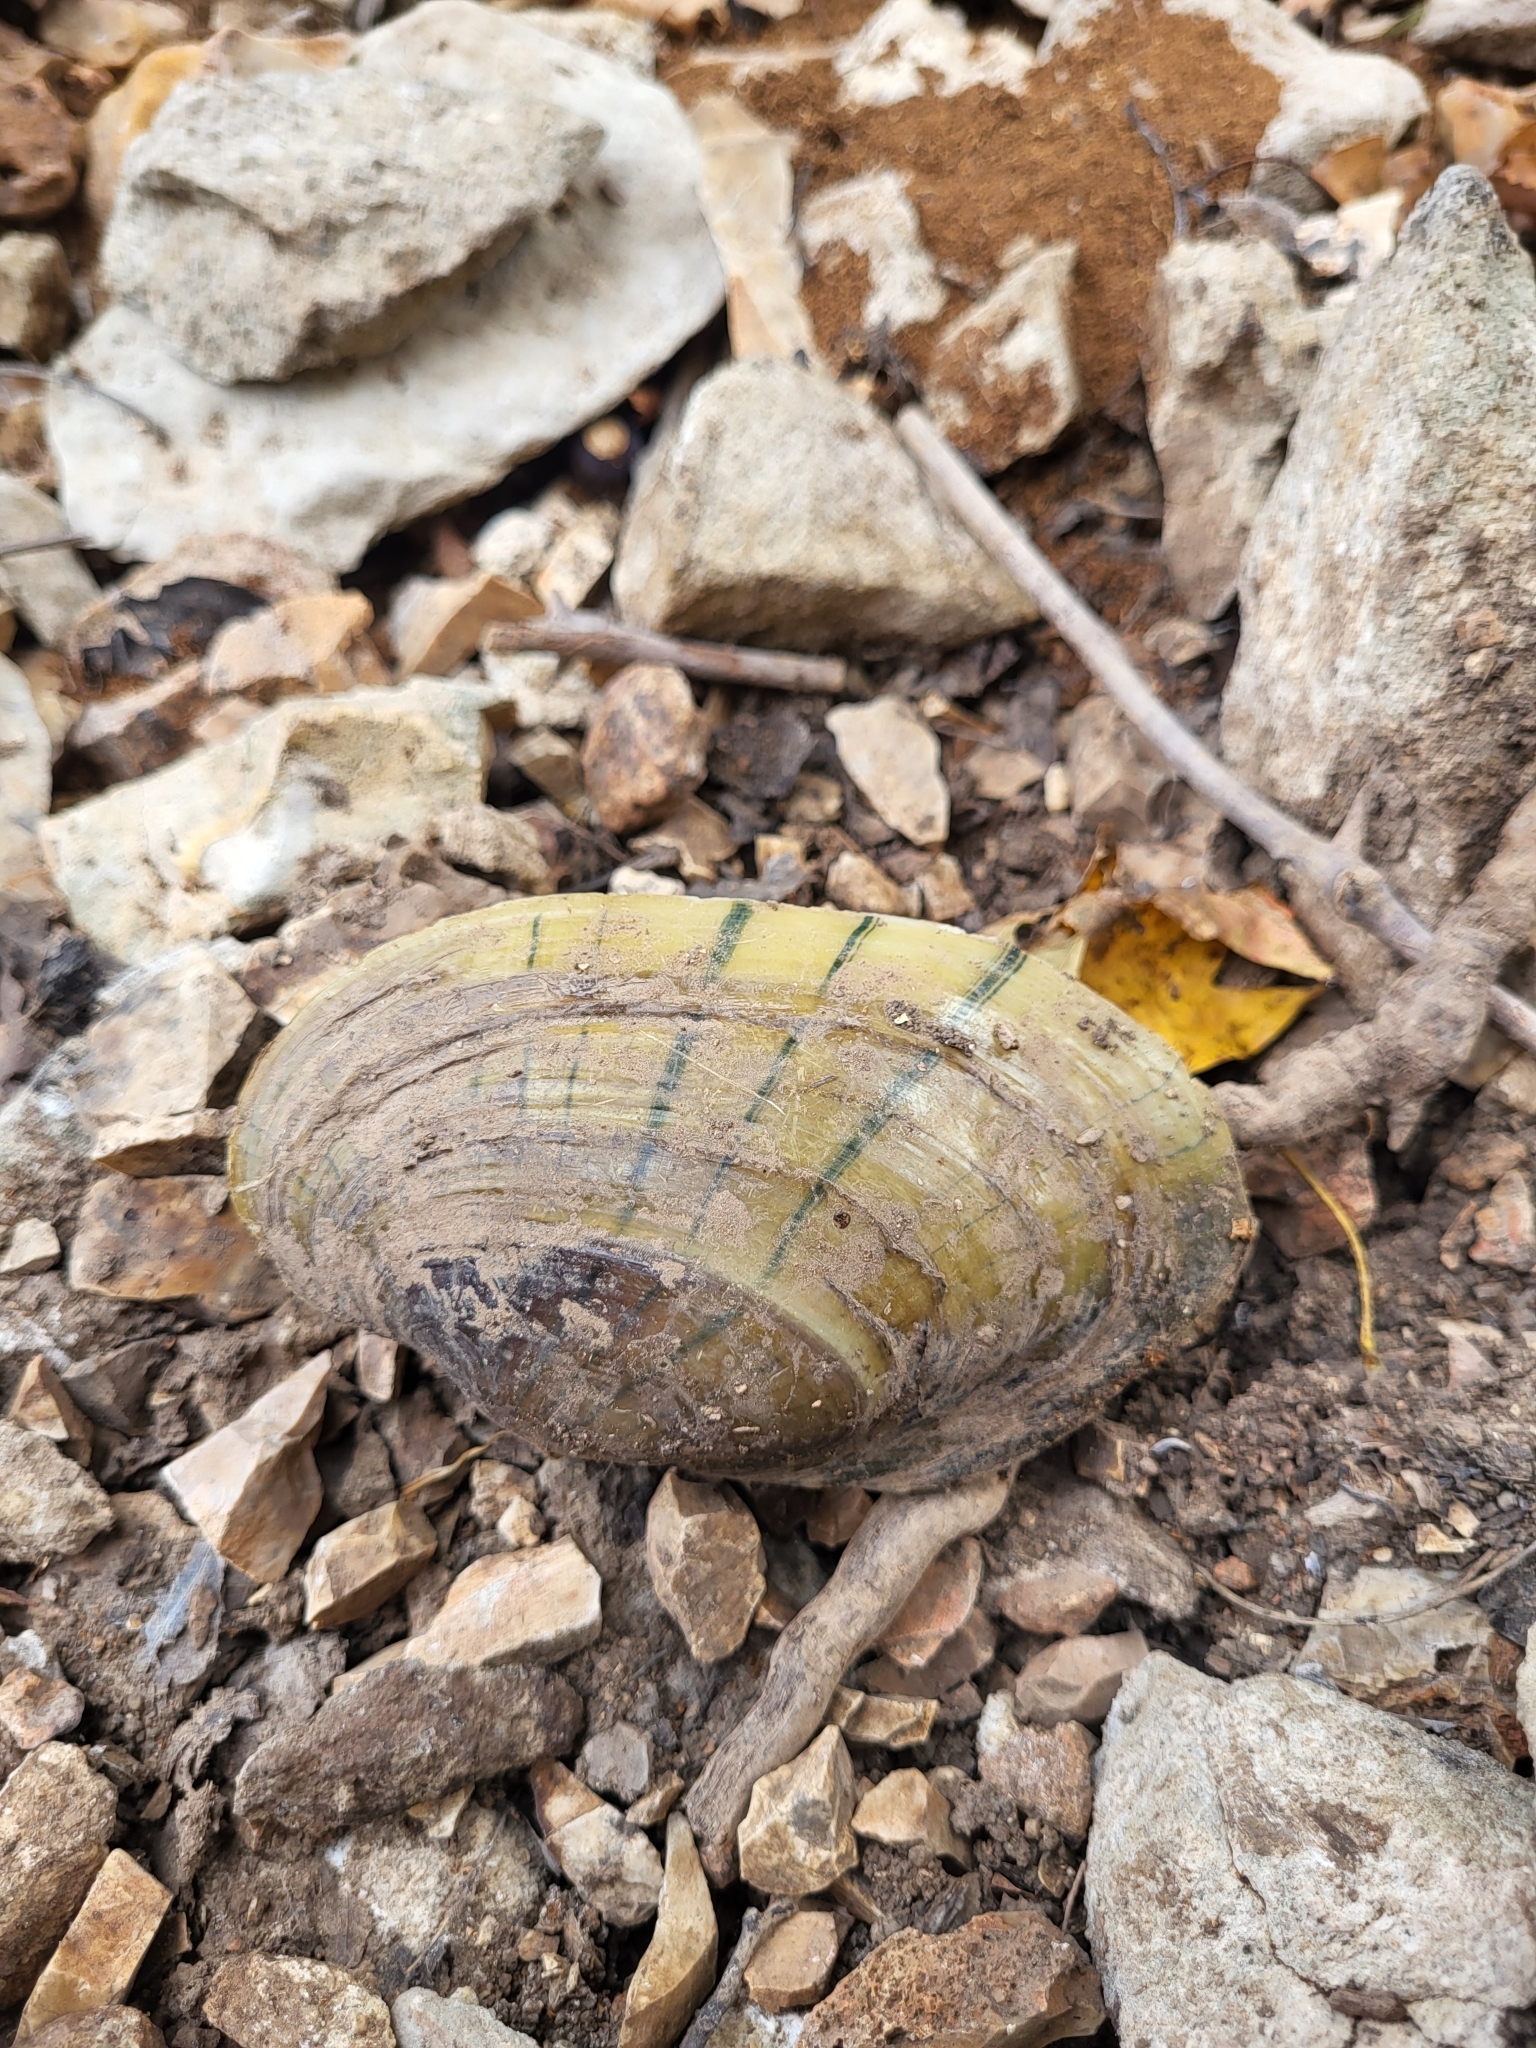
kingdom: Animalia
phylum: Mollusca
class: Bivalvia
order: Unionida
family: Unionidae
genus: Lampsilis
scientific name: Lampsilis siliquoidea
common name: Fatmucket
